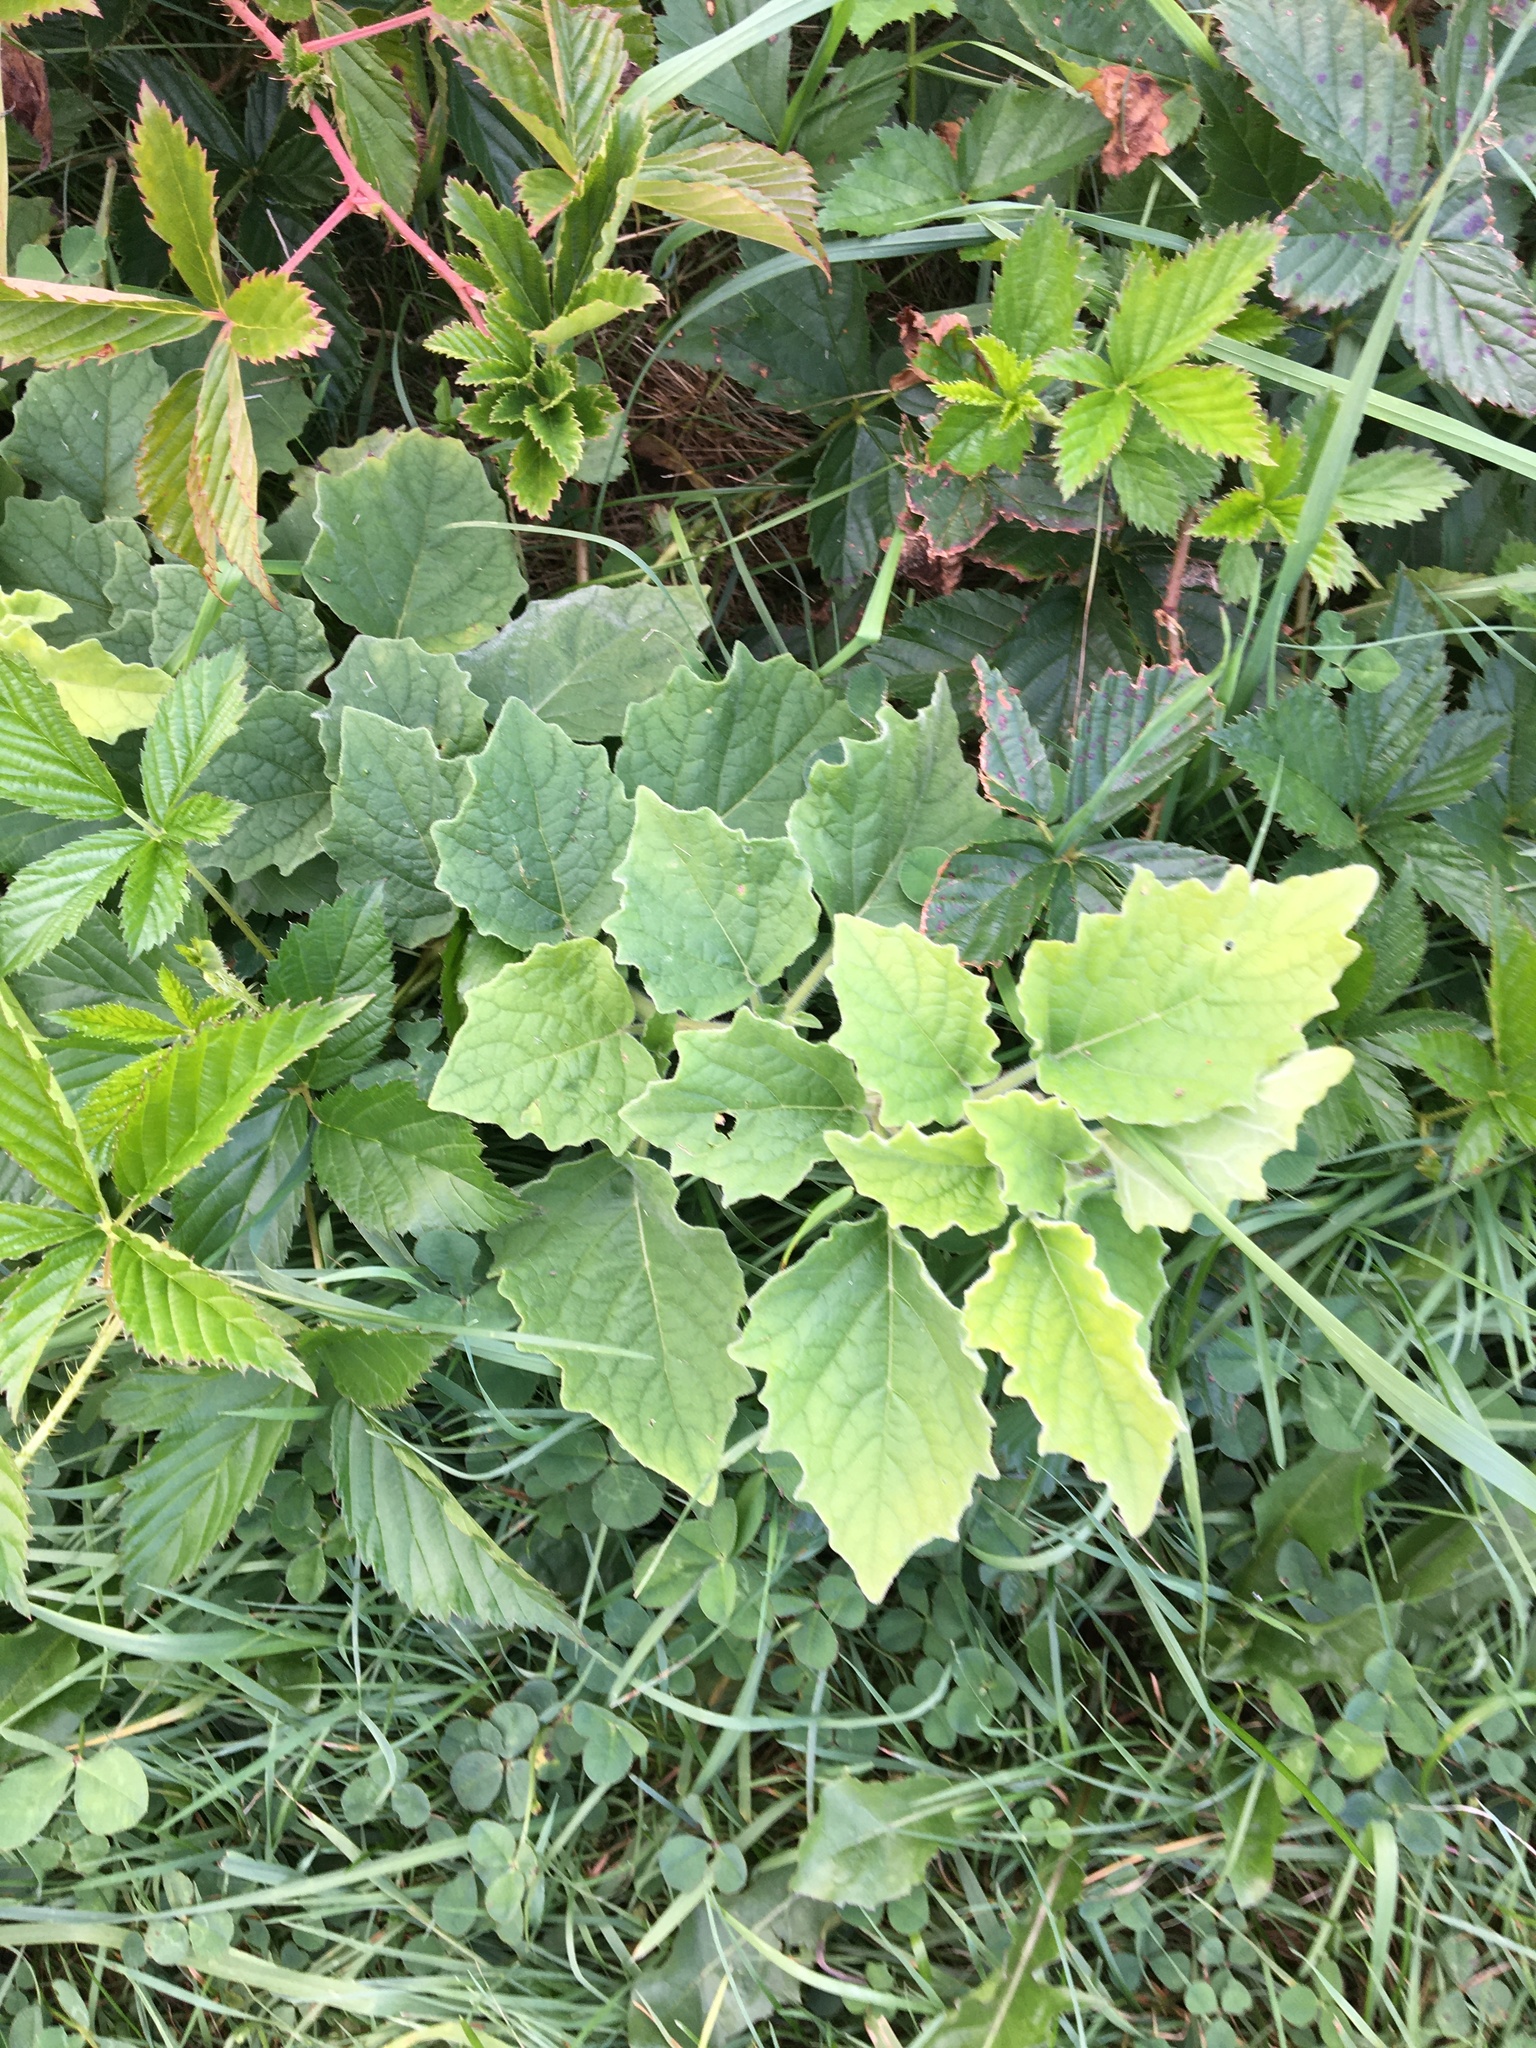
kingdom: Plantae
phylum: Tracheophyta
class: Magnoliopsida
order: Solanales
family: Solanaceae
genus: Physalis
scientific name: Physalis heterophylla
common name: Clammy ground-cherry
